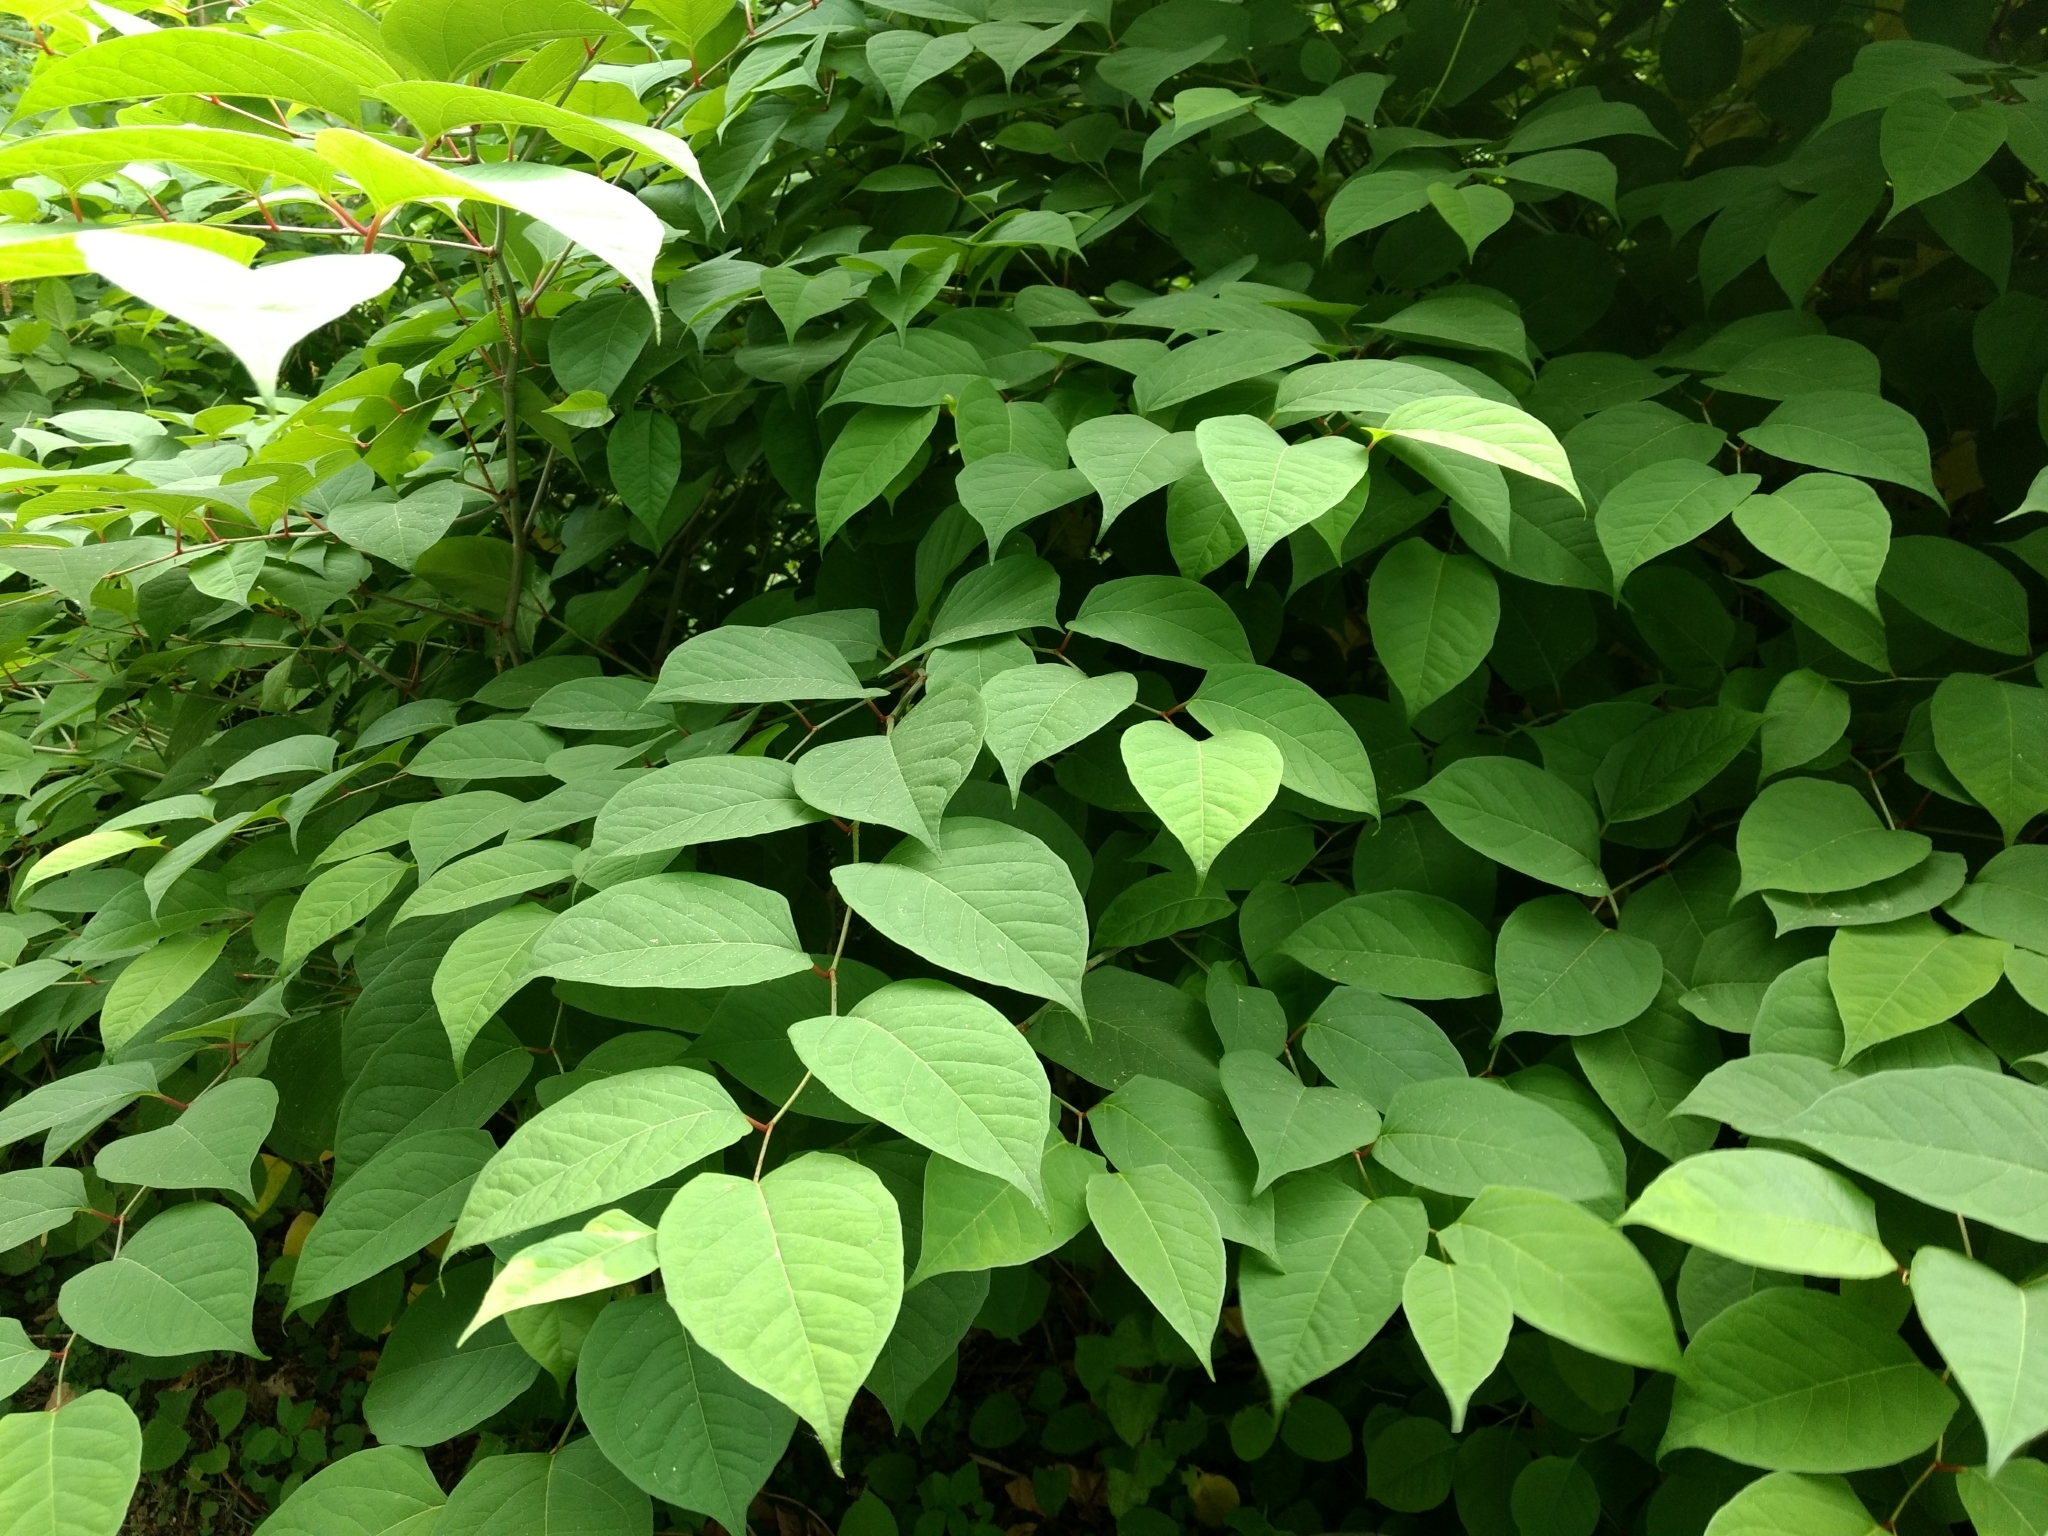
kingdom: Plantae
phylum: Tracheophyta
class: Magnoliopsida
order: Caryophyllales
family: Polygonaceae
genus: Reynoutria
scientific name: Reynoutria japonica
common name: Japanese knotweed
